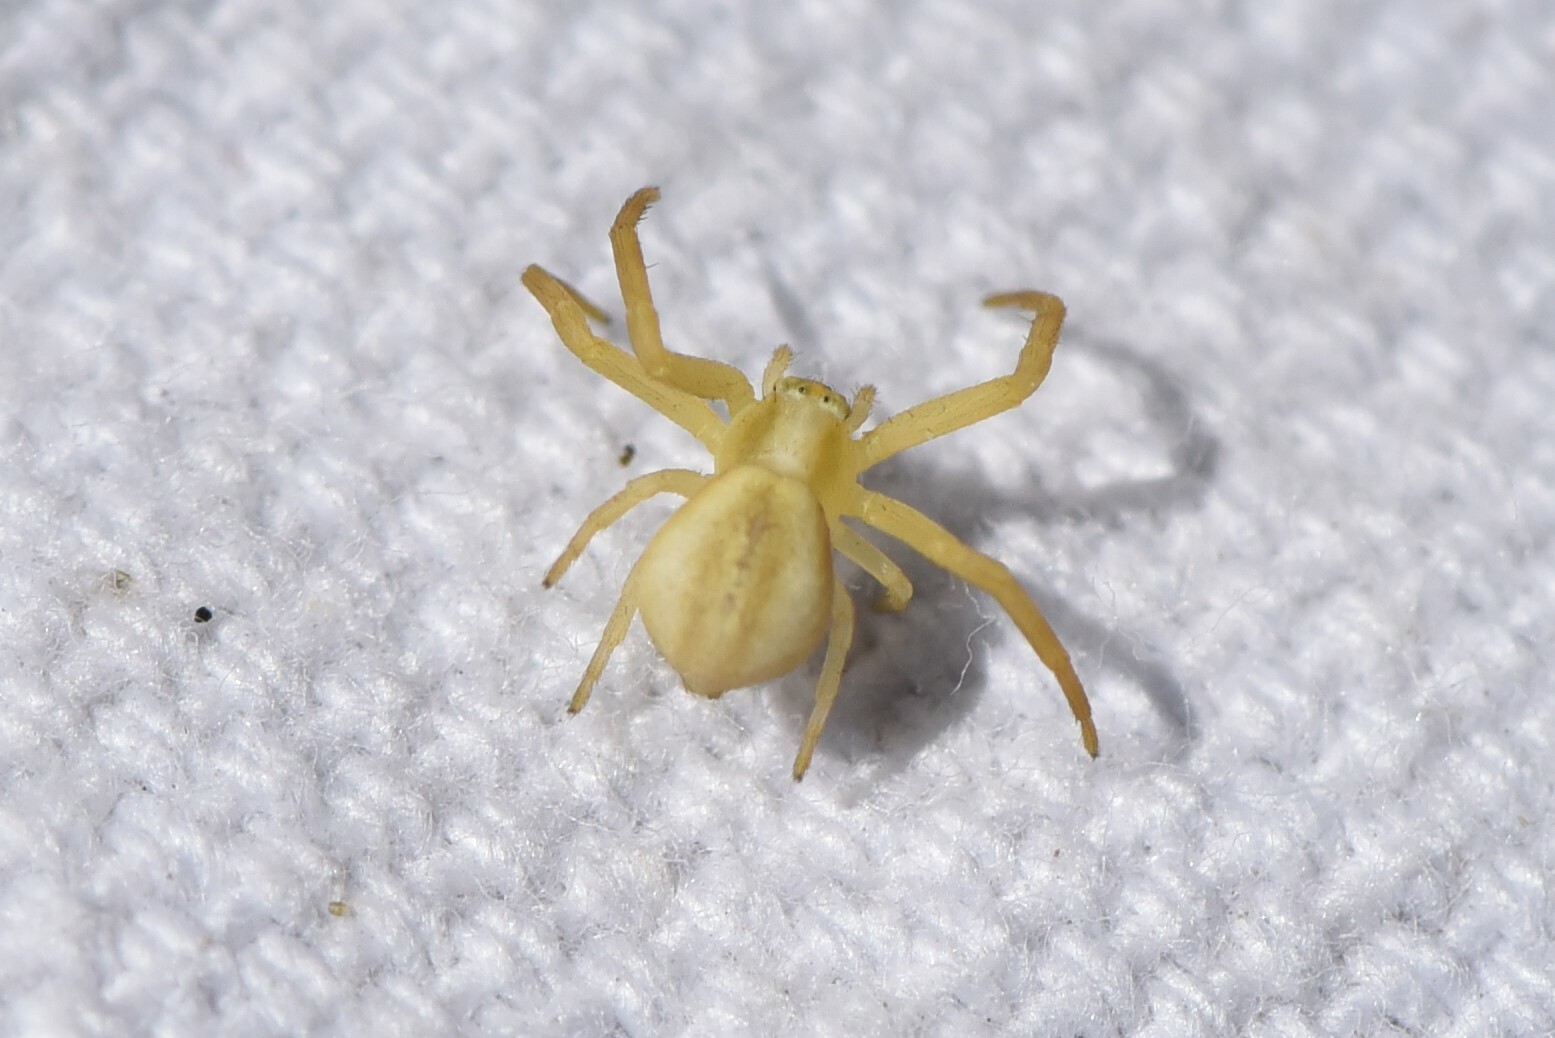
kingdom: Animalia
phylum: Arthropoda
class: Arachnida
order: Araneae
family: Thomisidae
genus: Misumena
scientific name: Misumena vatia
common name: Goldenrod crab spider
